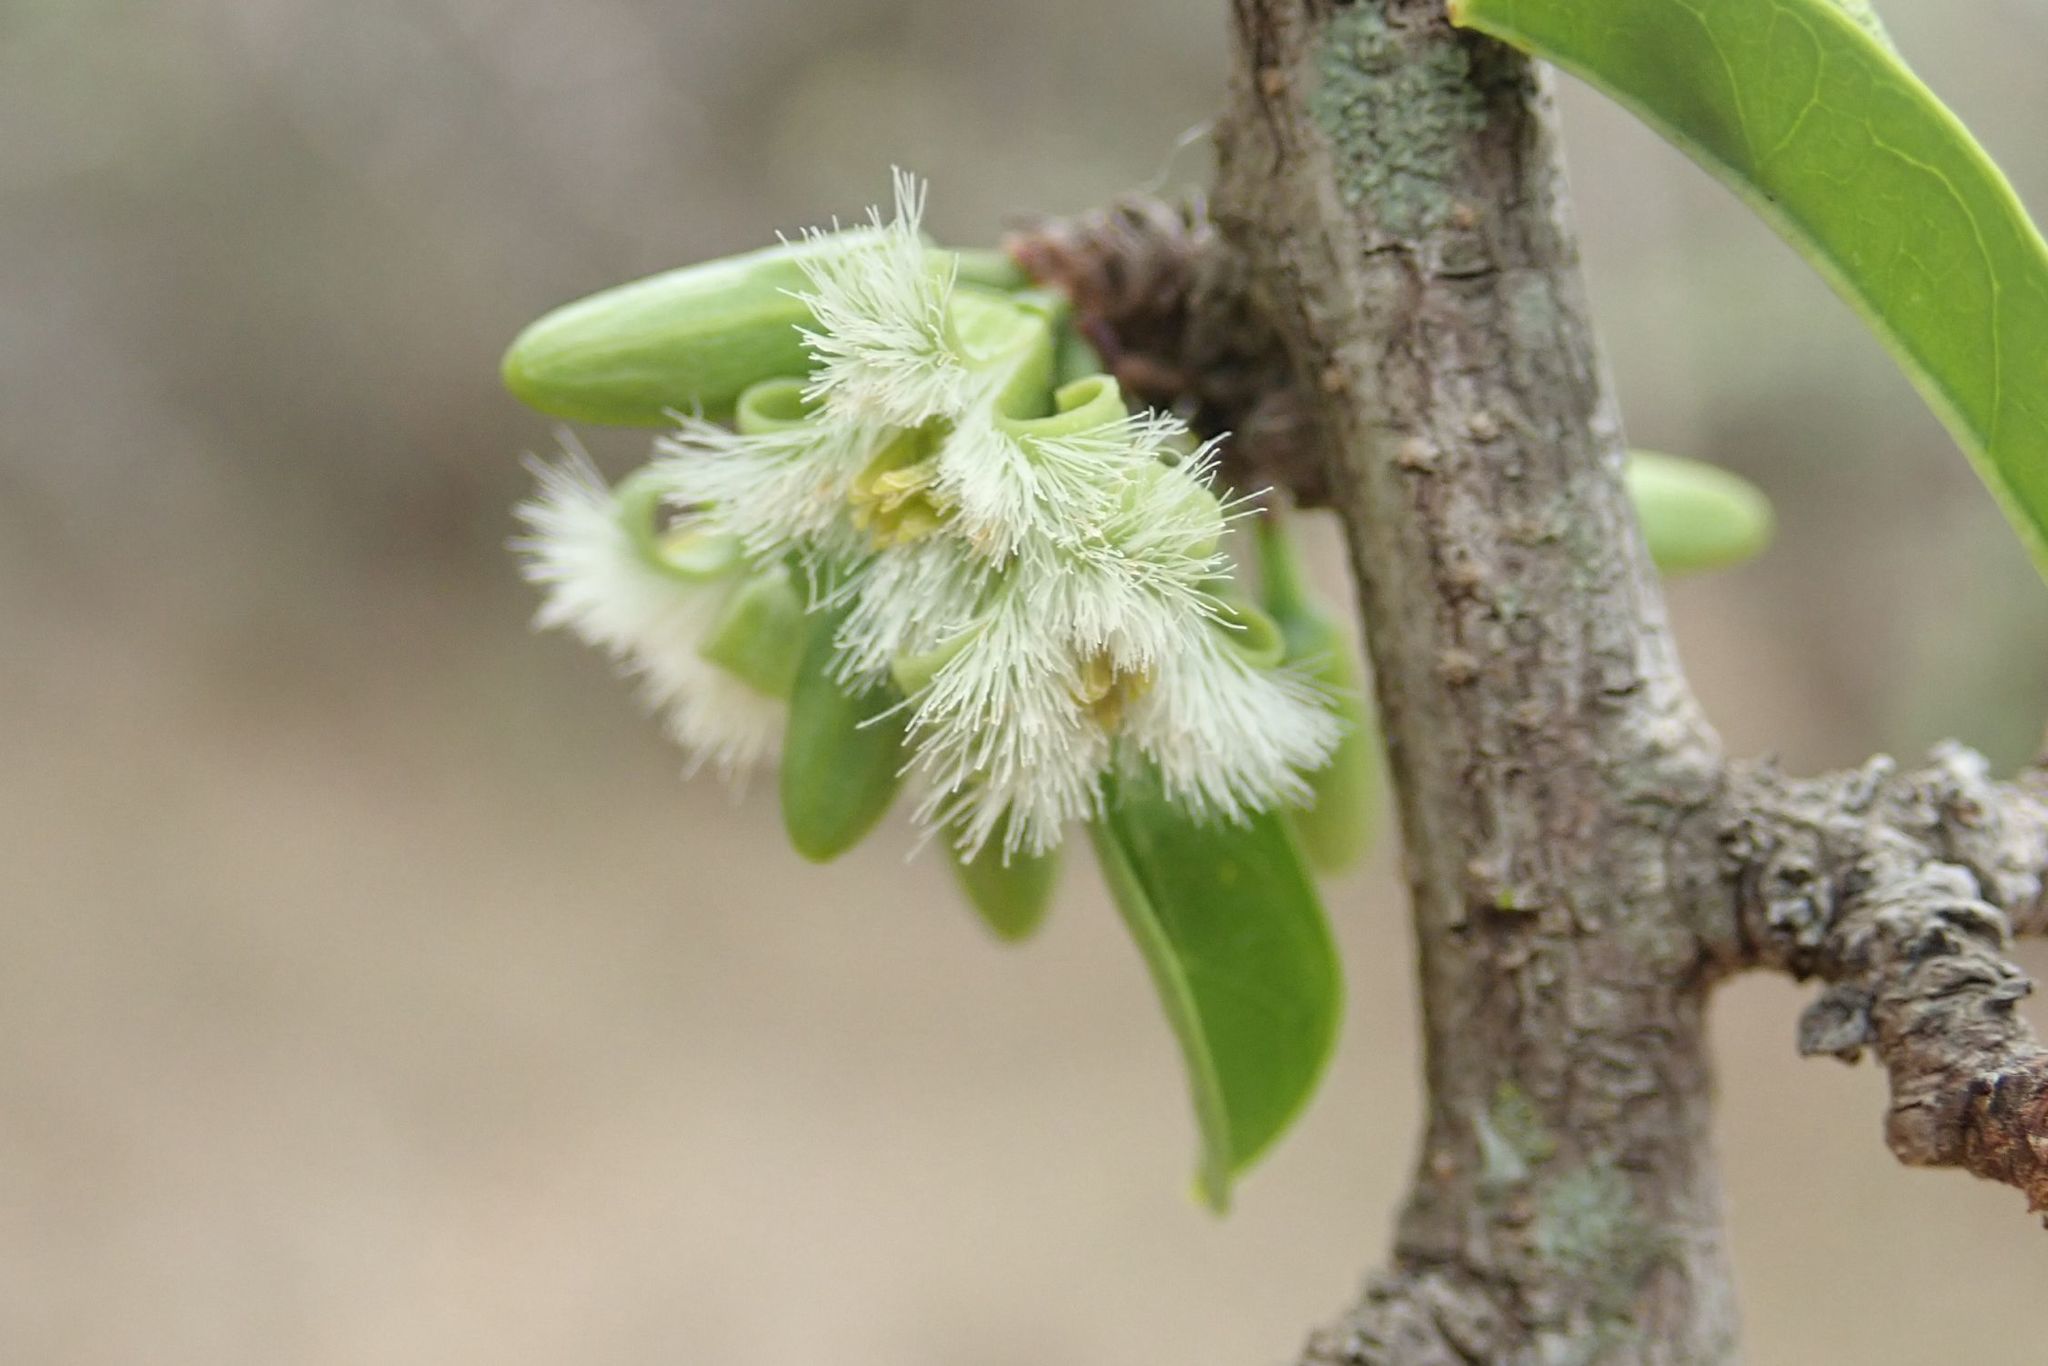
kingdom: Plantae
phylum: Tracheophyta
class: Magnoliopsida
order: Santalales
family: Ximeniaceae
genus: Ximenia
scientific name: Ximenia caffra
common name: Large sourplum
